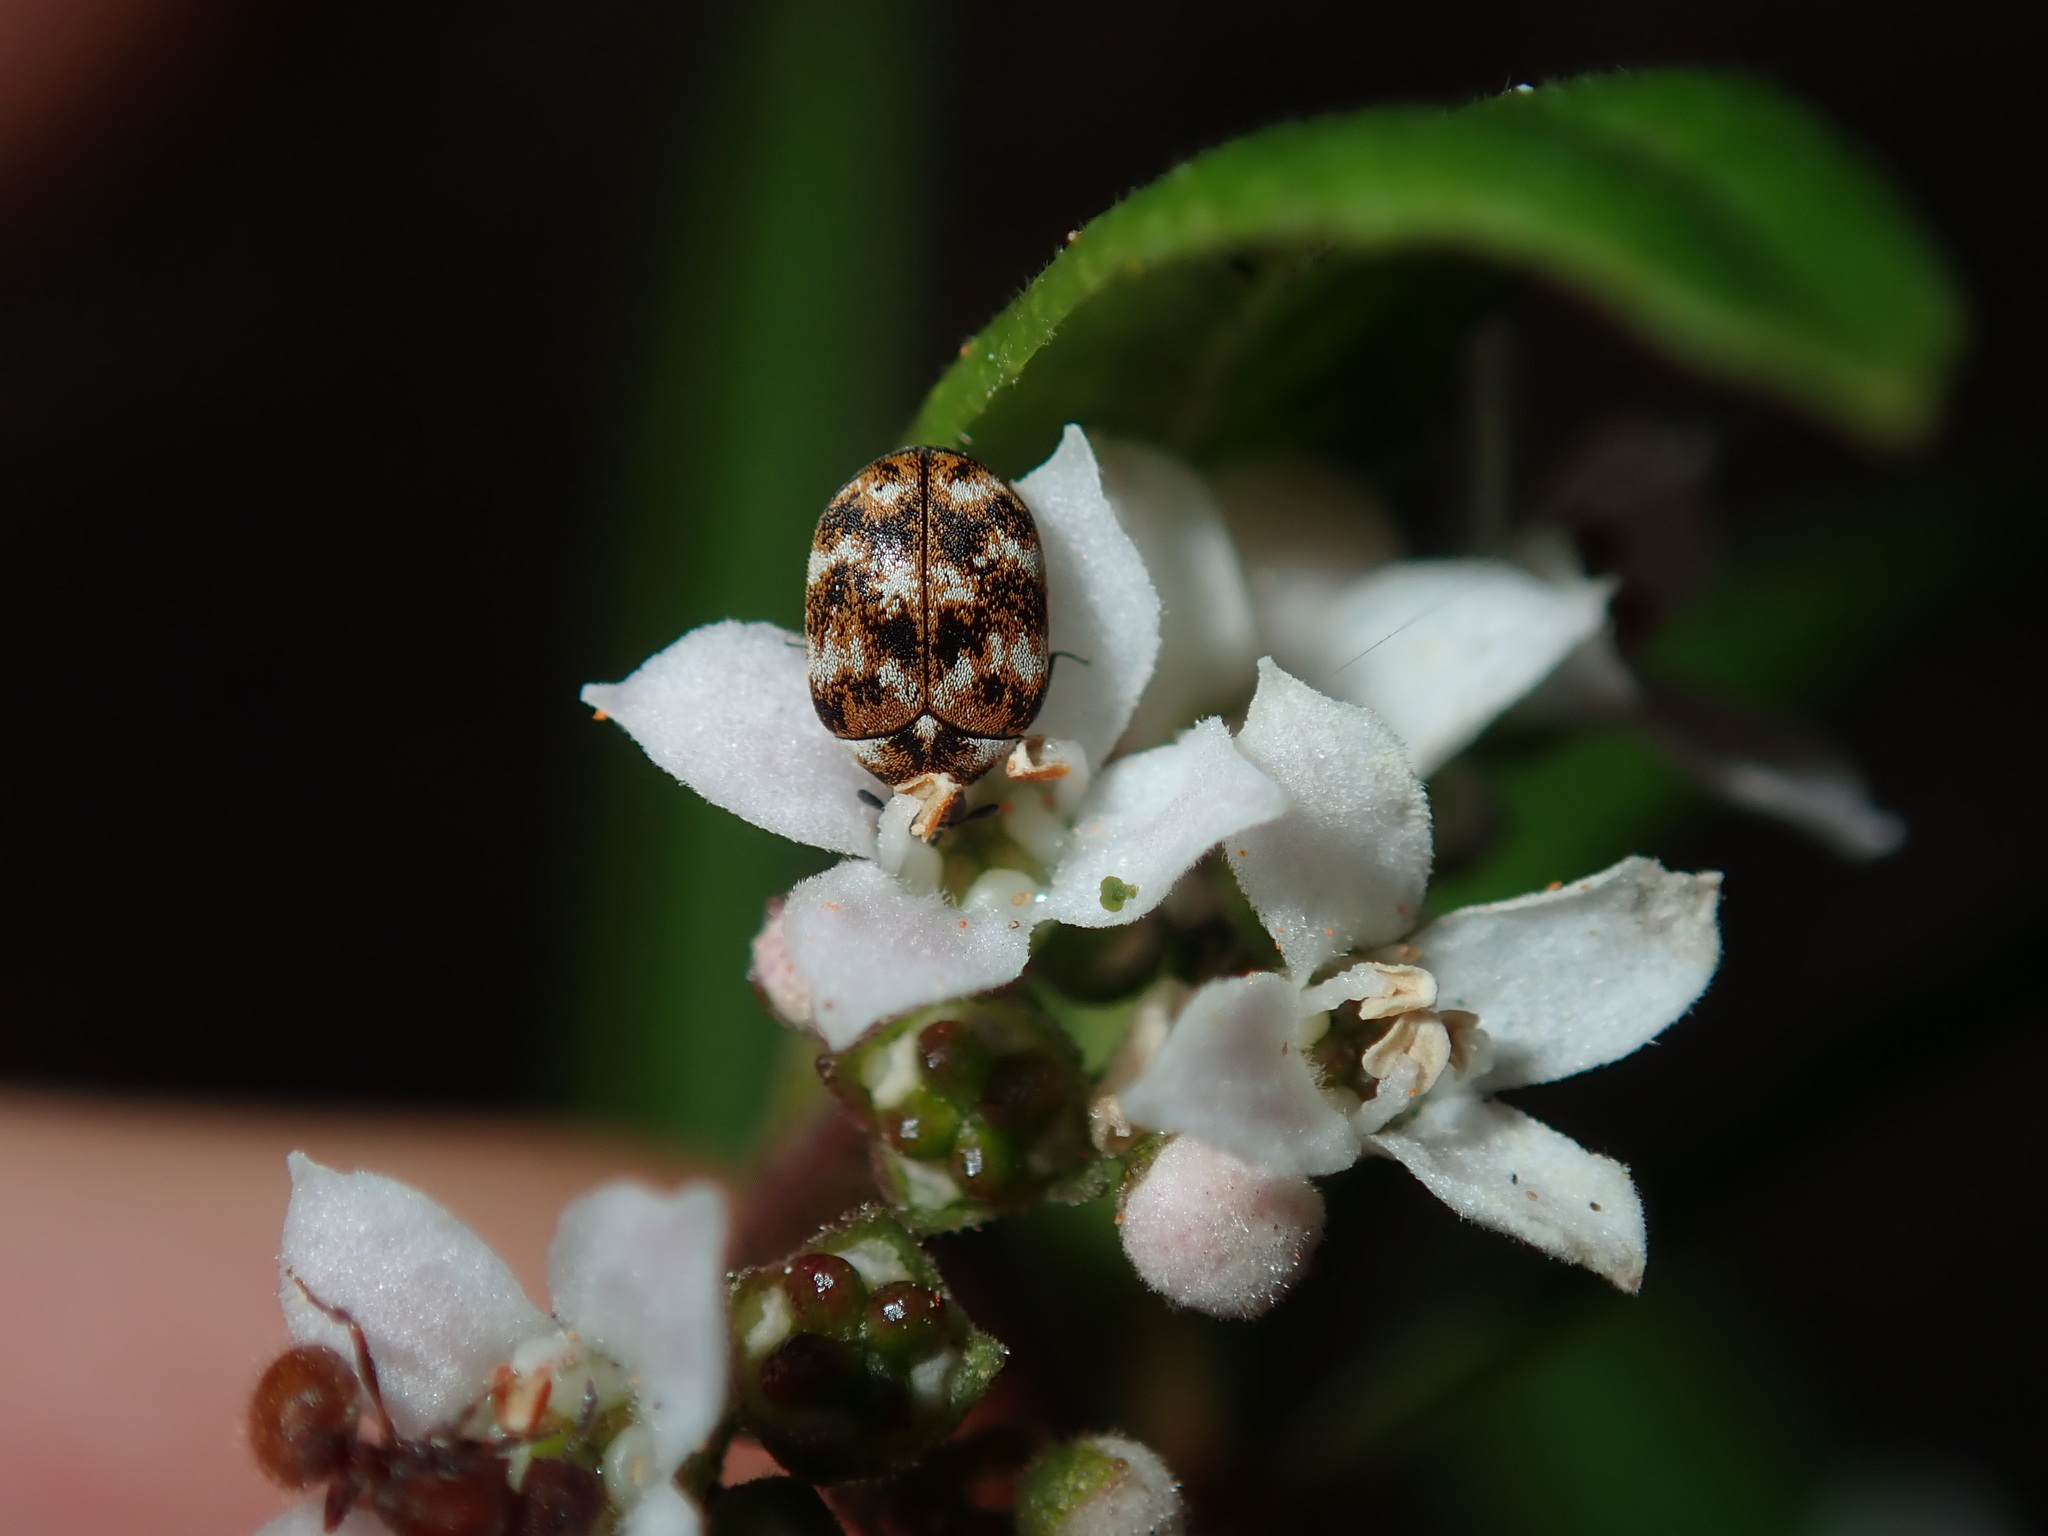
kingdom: Animalia
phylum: Arthropoda
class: Insecta
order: Coleoptera
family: Dermestidae
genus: Anthrenus
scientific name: Anthrenus verbasci
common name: Varied carpet beetle
